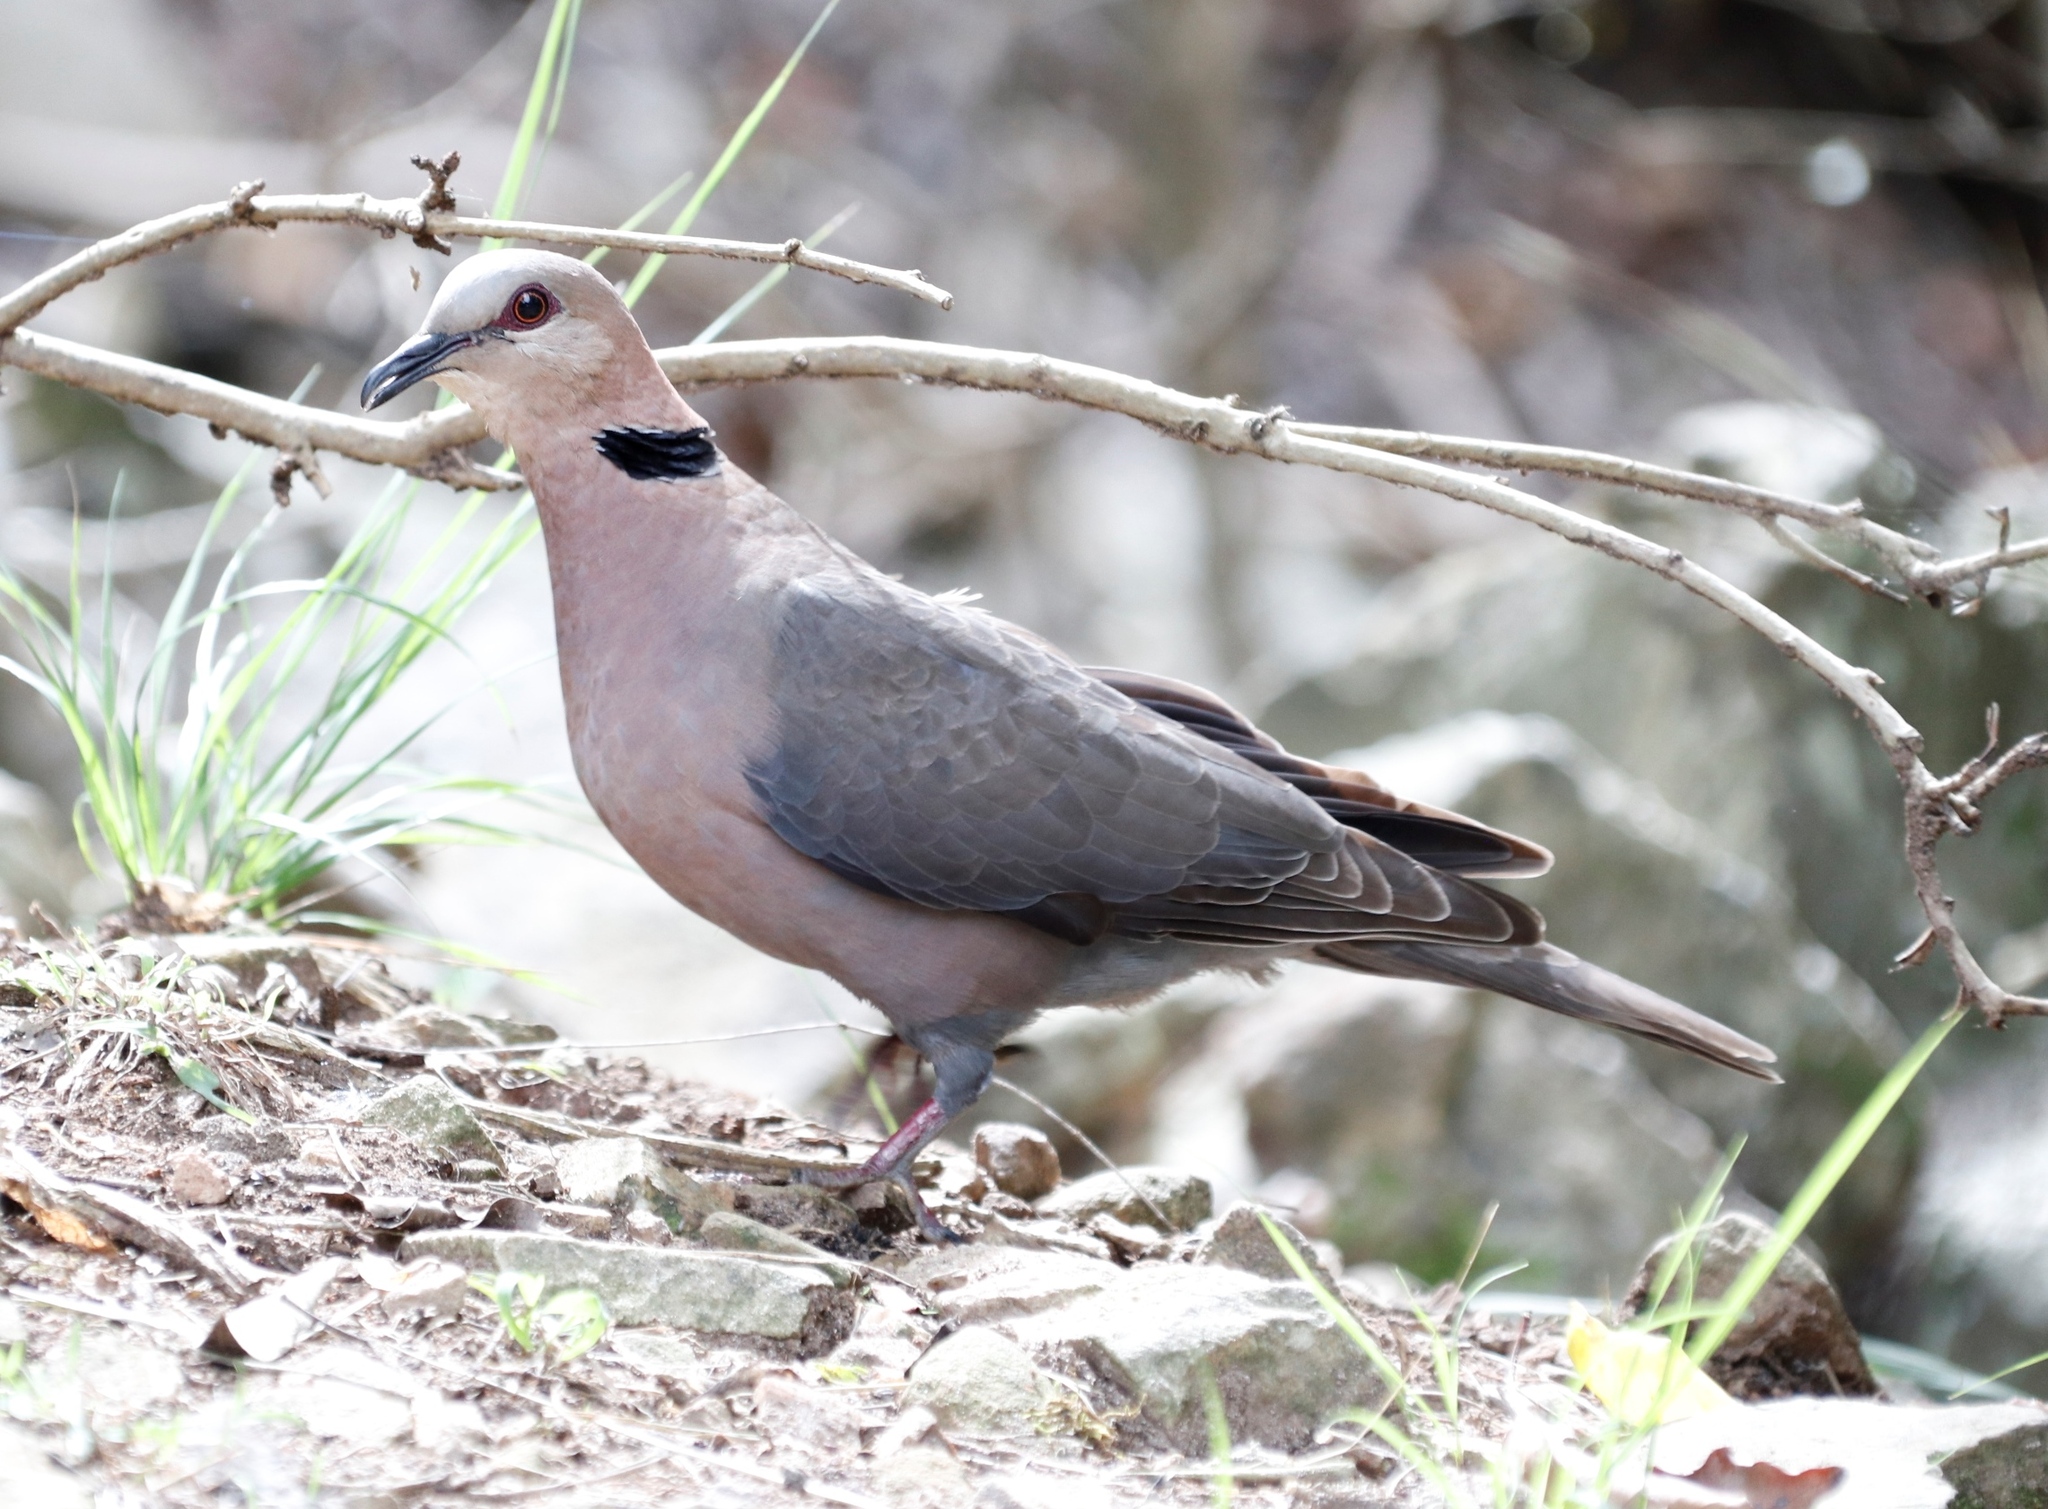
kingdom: Animalia
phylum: Chordata
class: Aves
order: Columbiformes
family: Columbidae
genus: Streptopelia
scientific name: Streptopelia semitorquata
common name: Red-eyed dove
